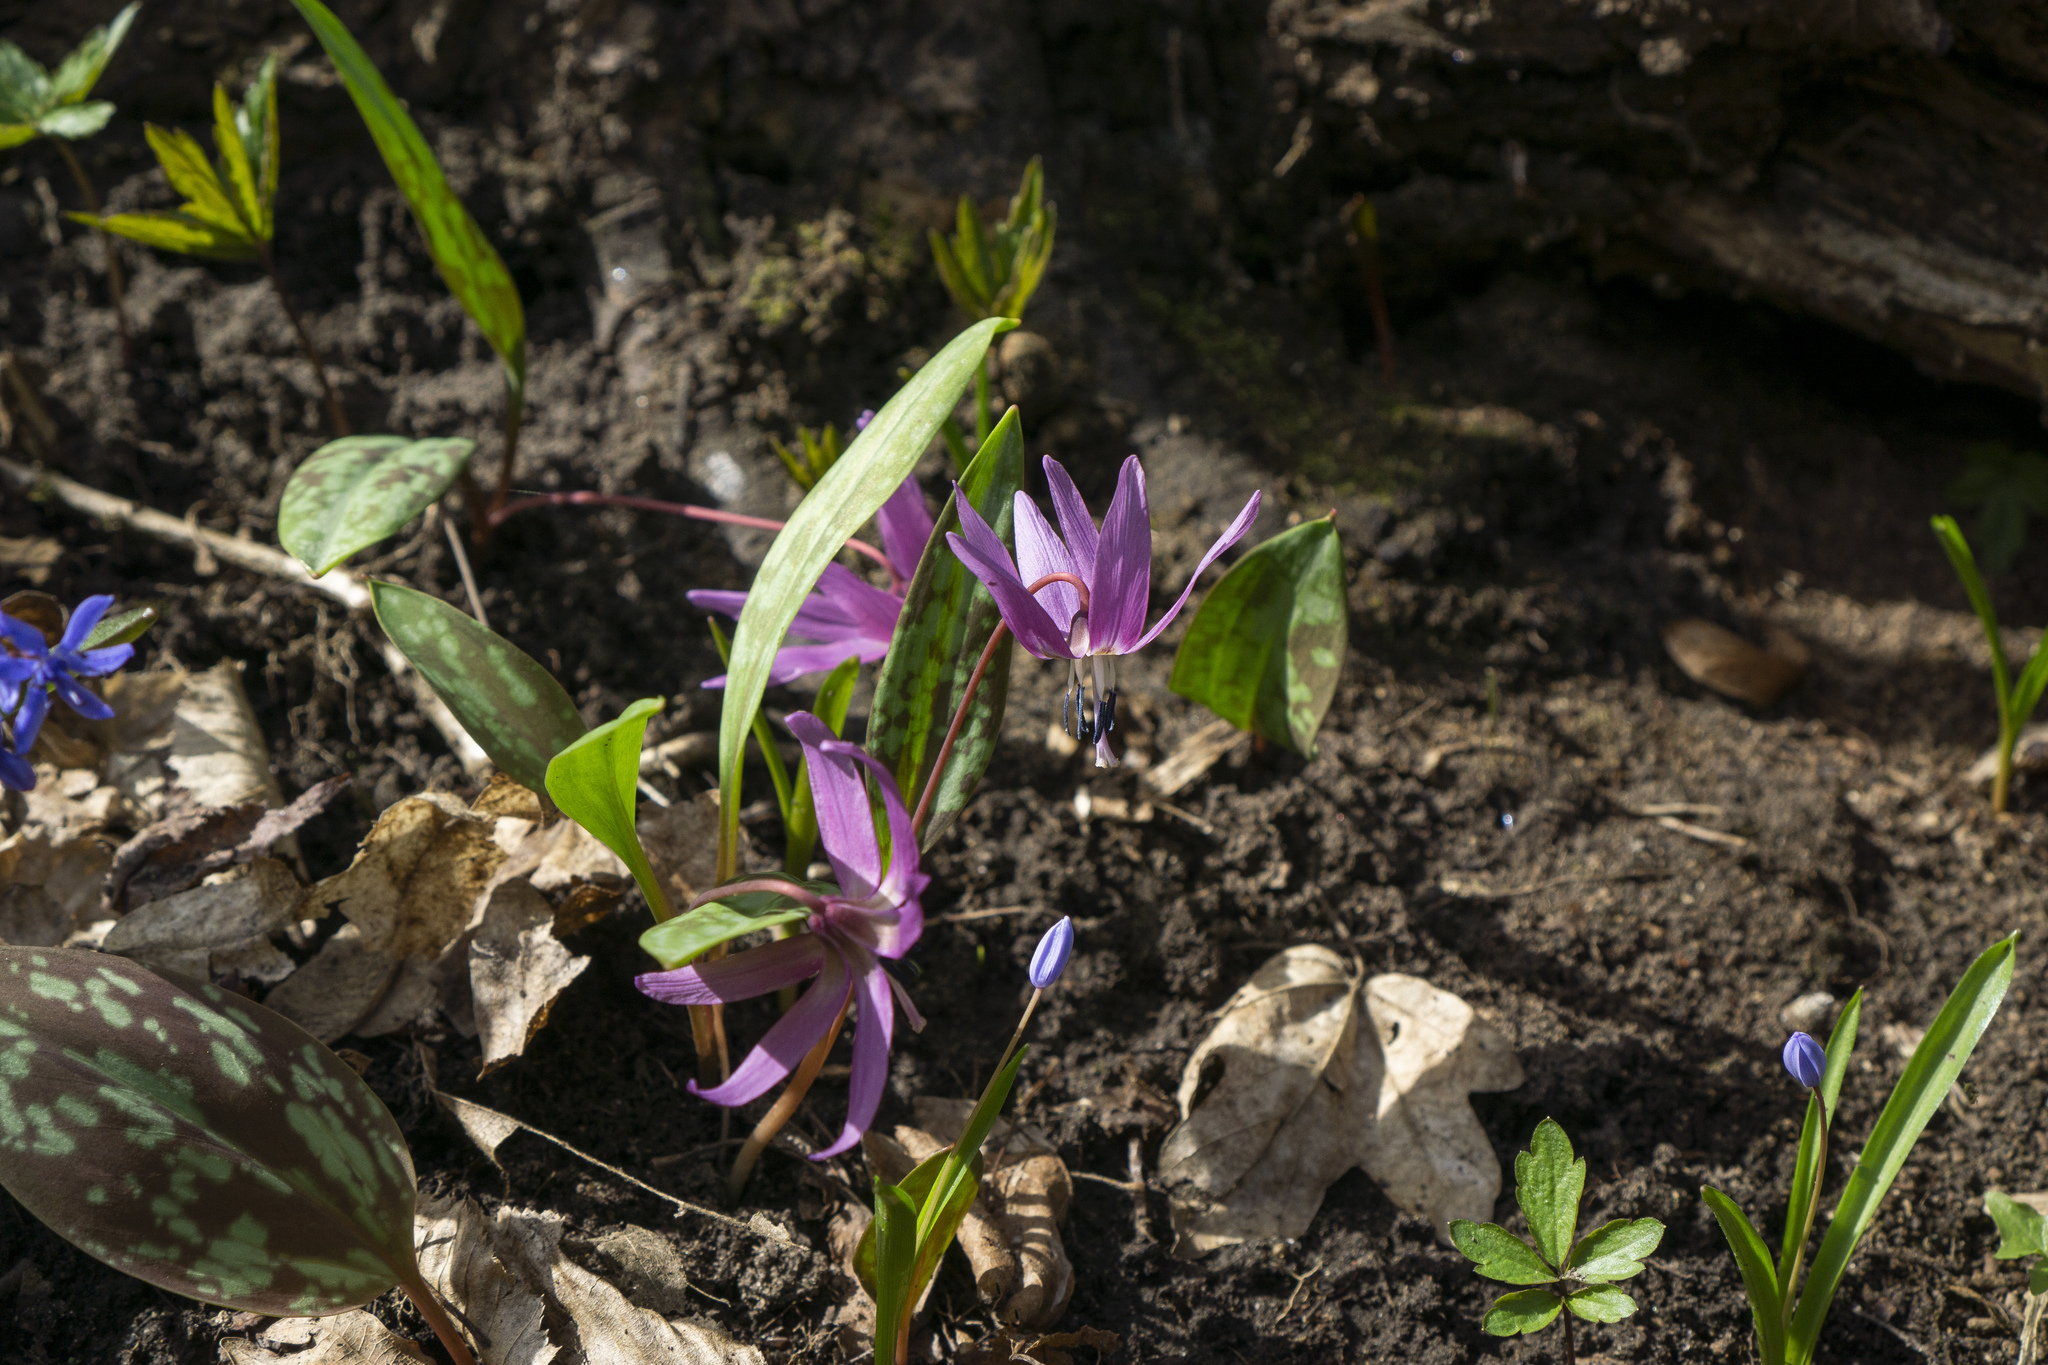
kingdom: Plantae
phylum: Tracheophyta
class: Liliopsida
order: Liliales
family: Liliaceae
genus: Erythronium
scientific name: Erythronium dens-canis
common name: Dog's-tooth-violet
